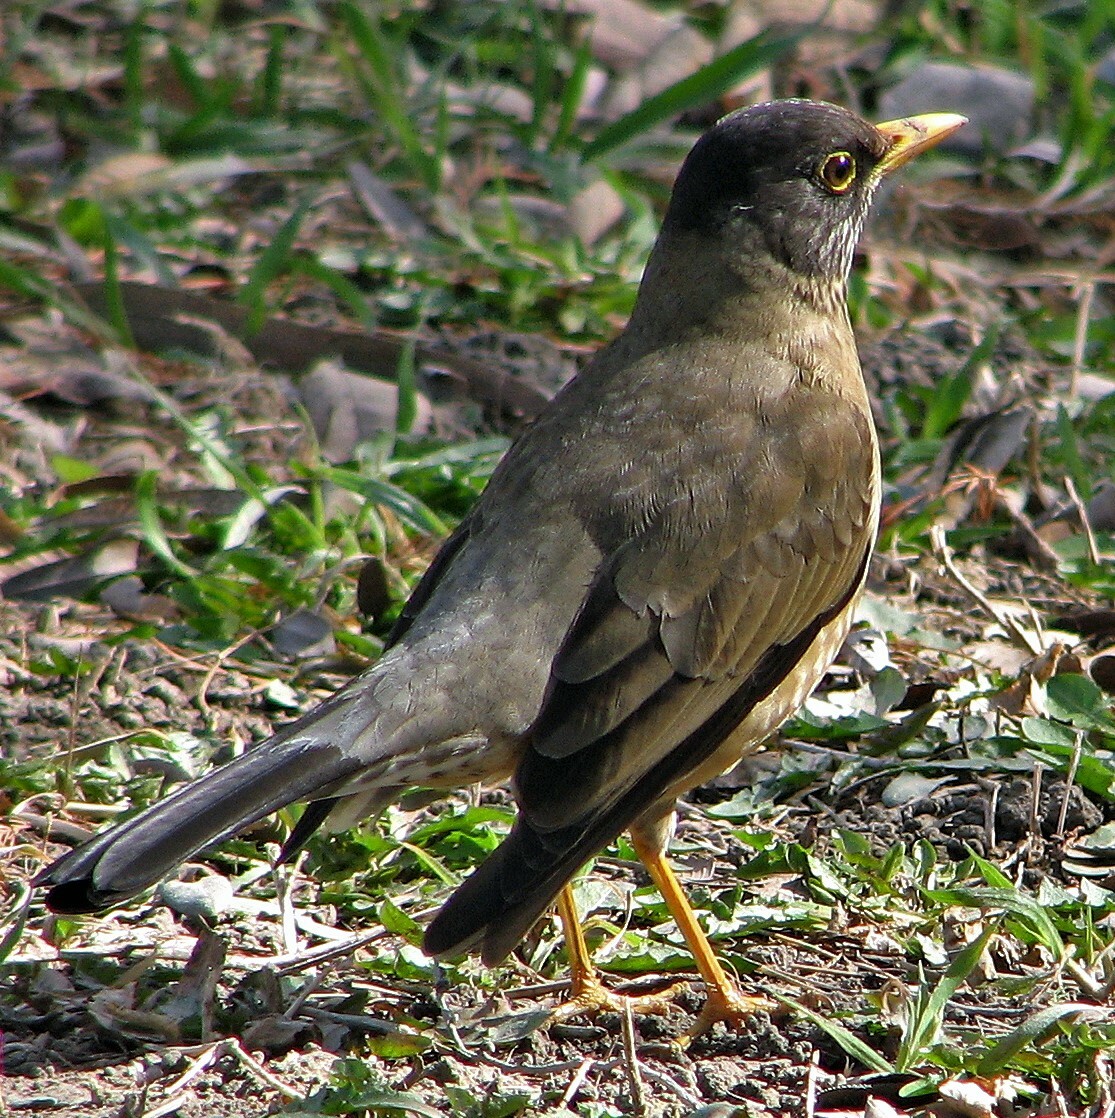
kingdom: Animalia
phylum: Chordata
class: Aves
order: Passeriformes
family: Turdidae
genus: Turdus
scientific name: Turdus falcklandii
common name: Austral thrush
